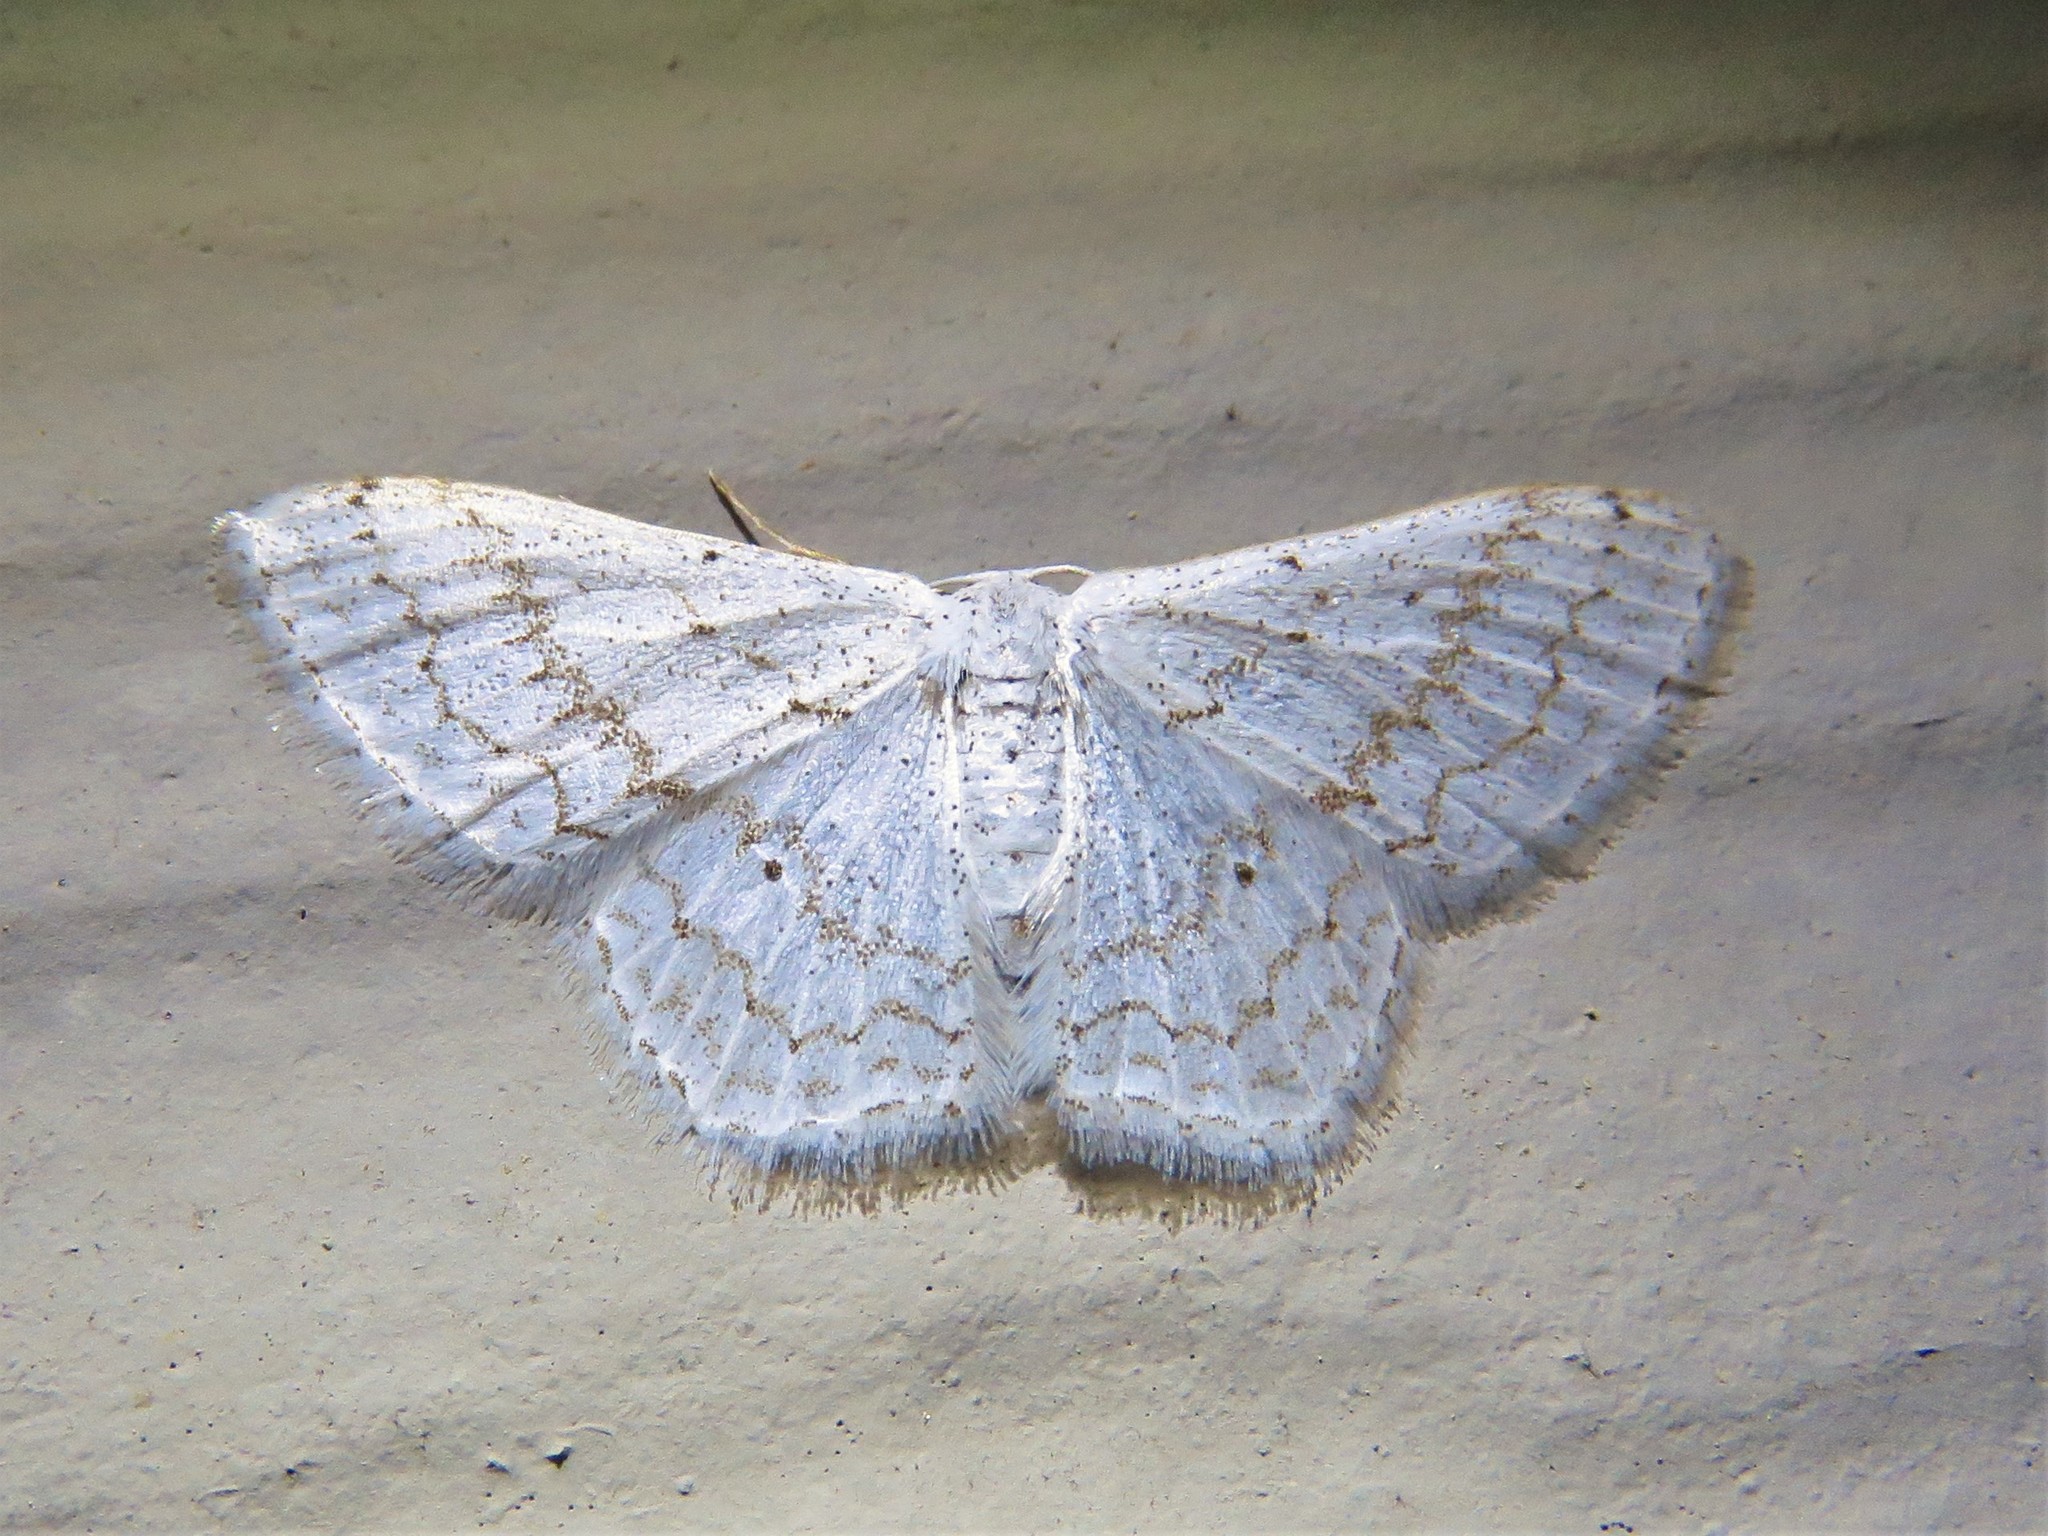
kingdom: Animalia
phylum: Arthropoda
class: Insecta
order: Lepidoptera
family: Geometridae
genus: Idaea
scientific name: Idaea tacturata
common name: Dot-lined wave
